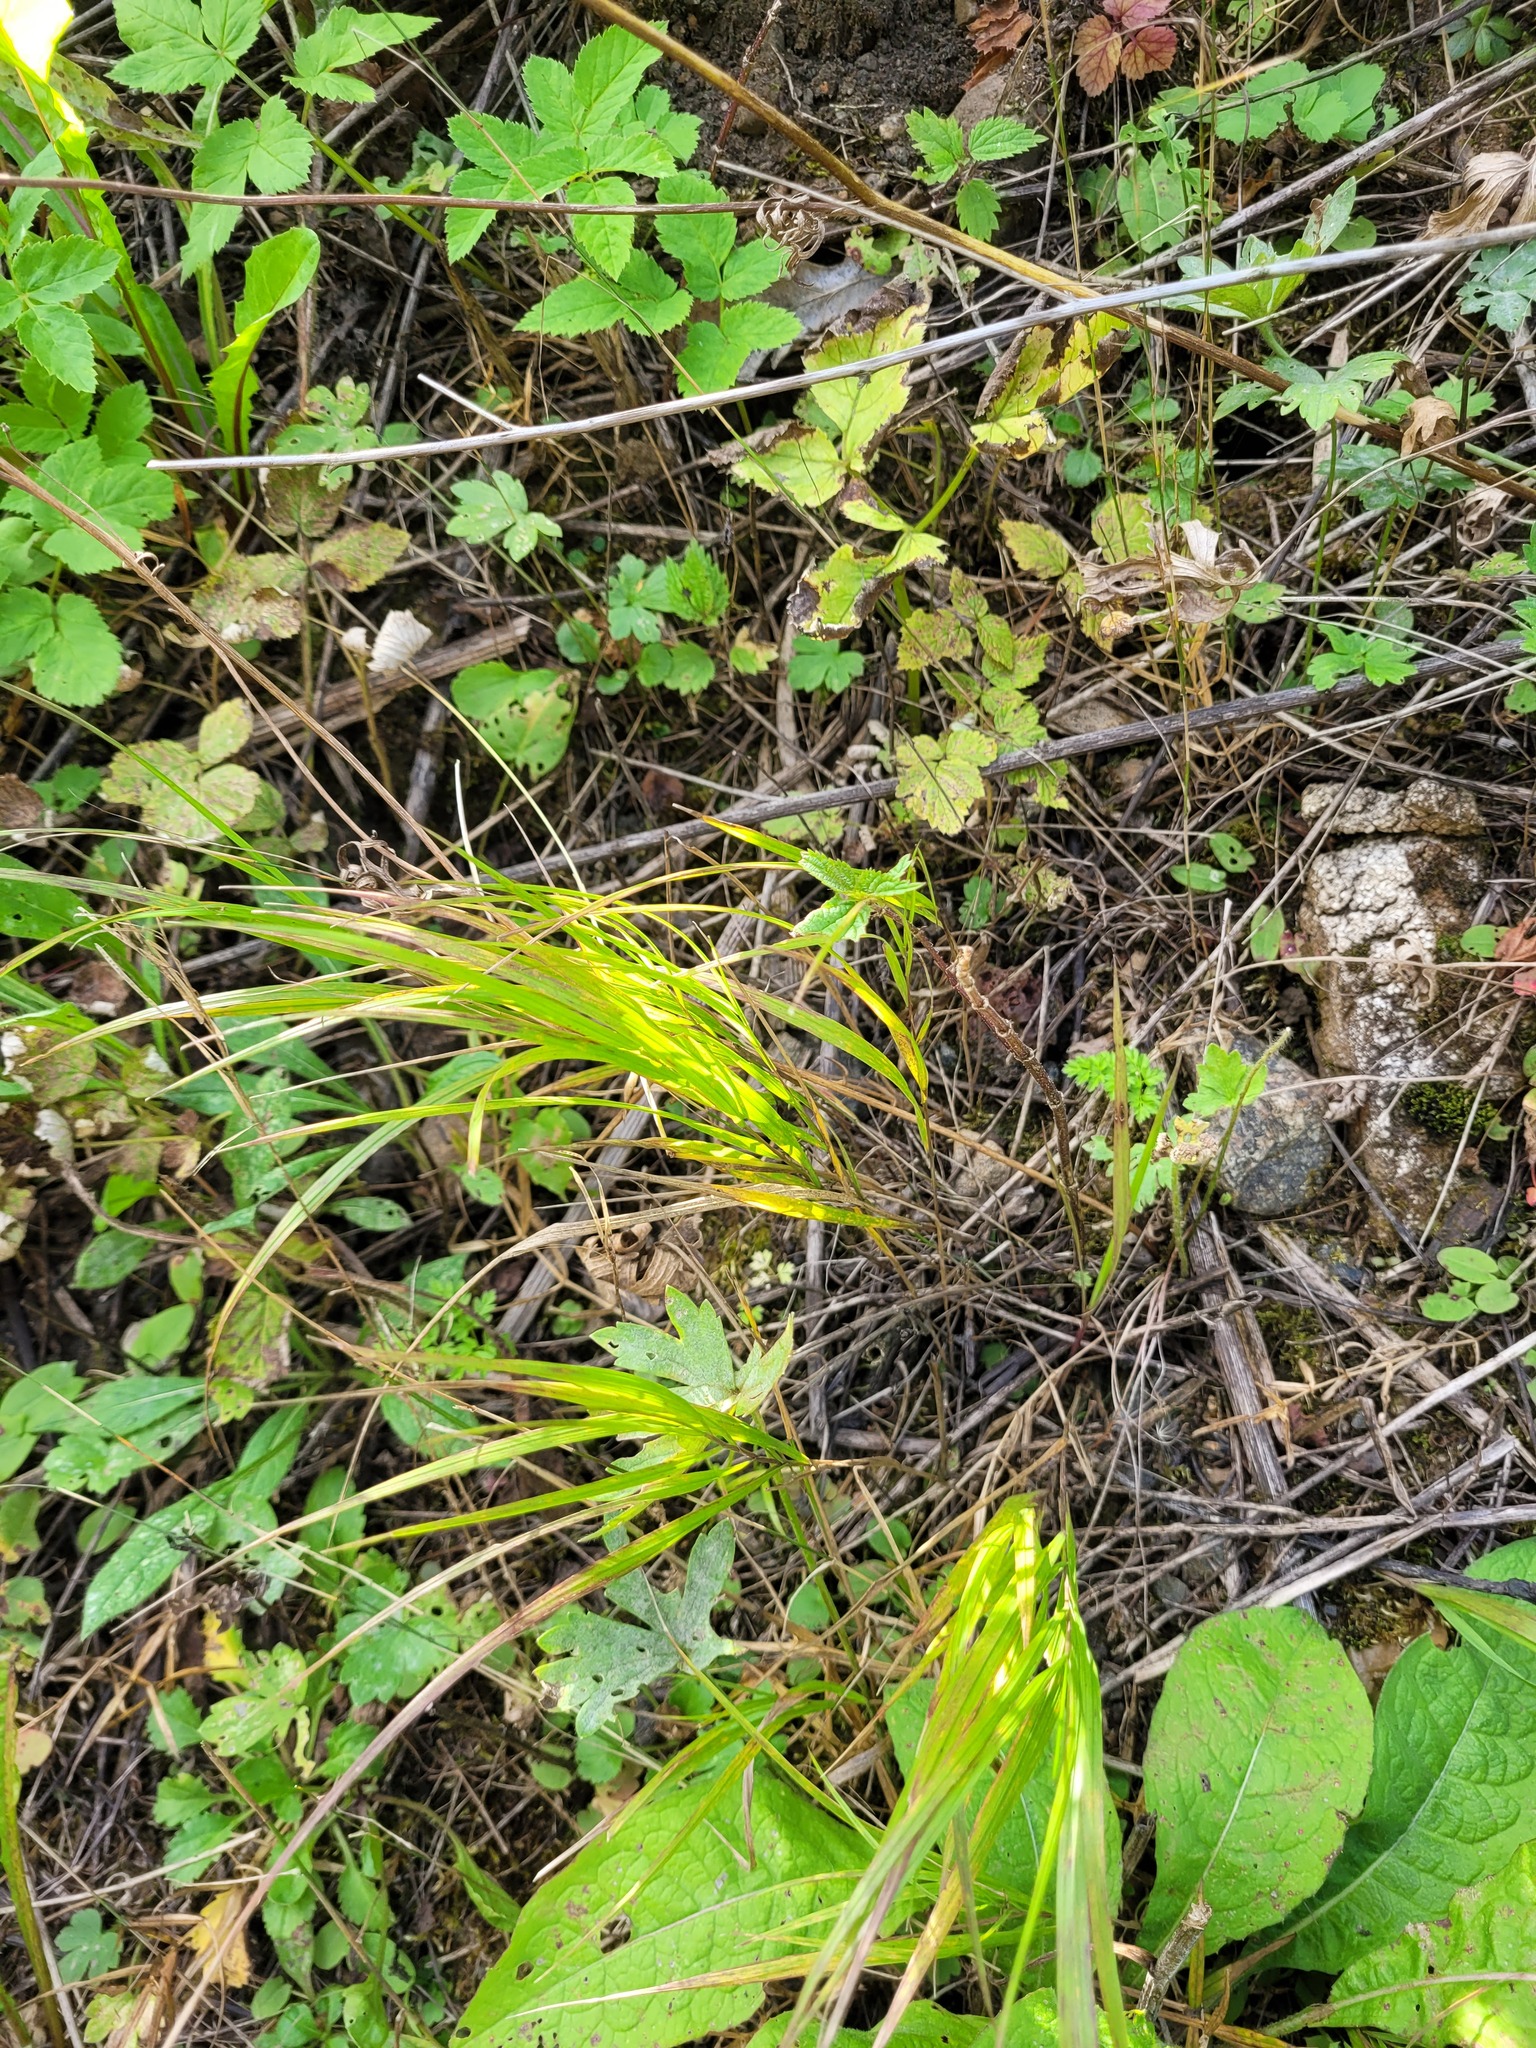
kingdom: Plantae
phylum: Tracheophyta
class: Liliopsida
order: Poales
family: Poaceae
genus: Melica
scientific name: Melica nutans
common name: Mountain melick
